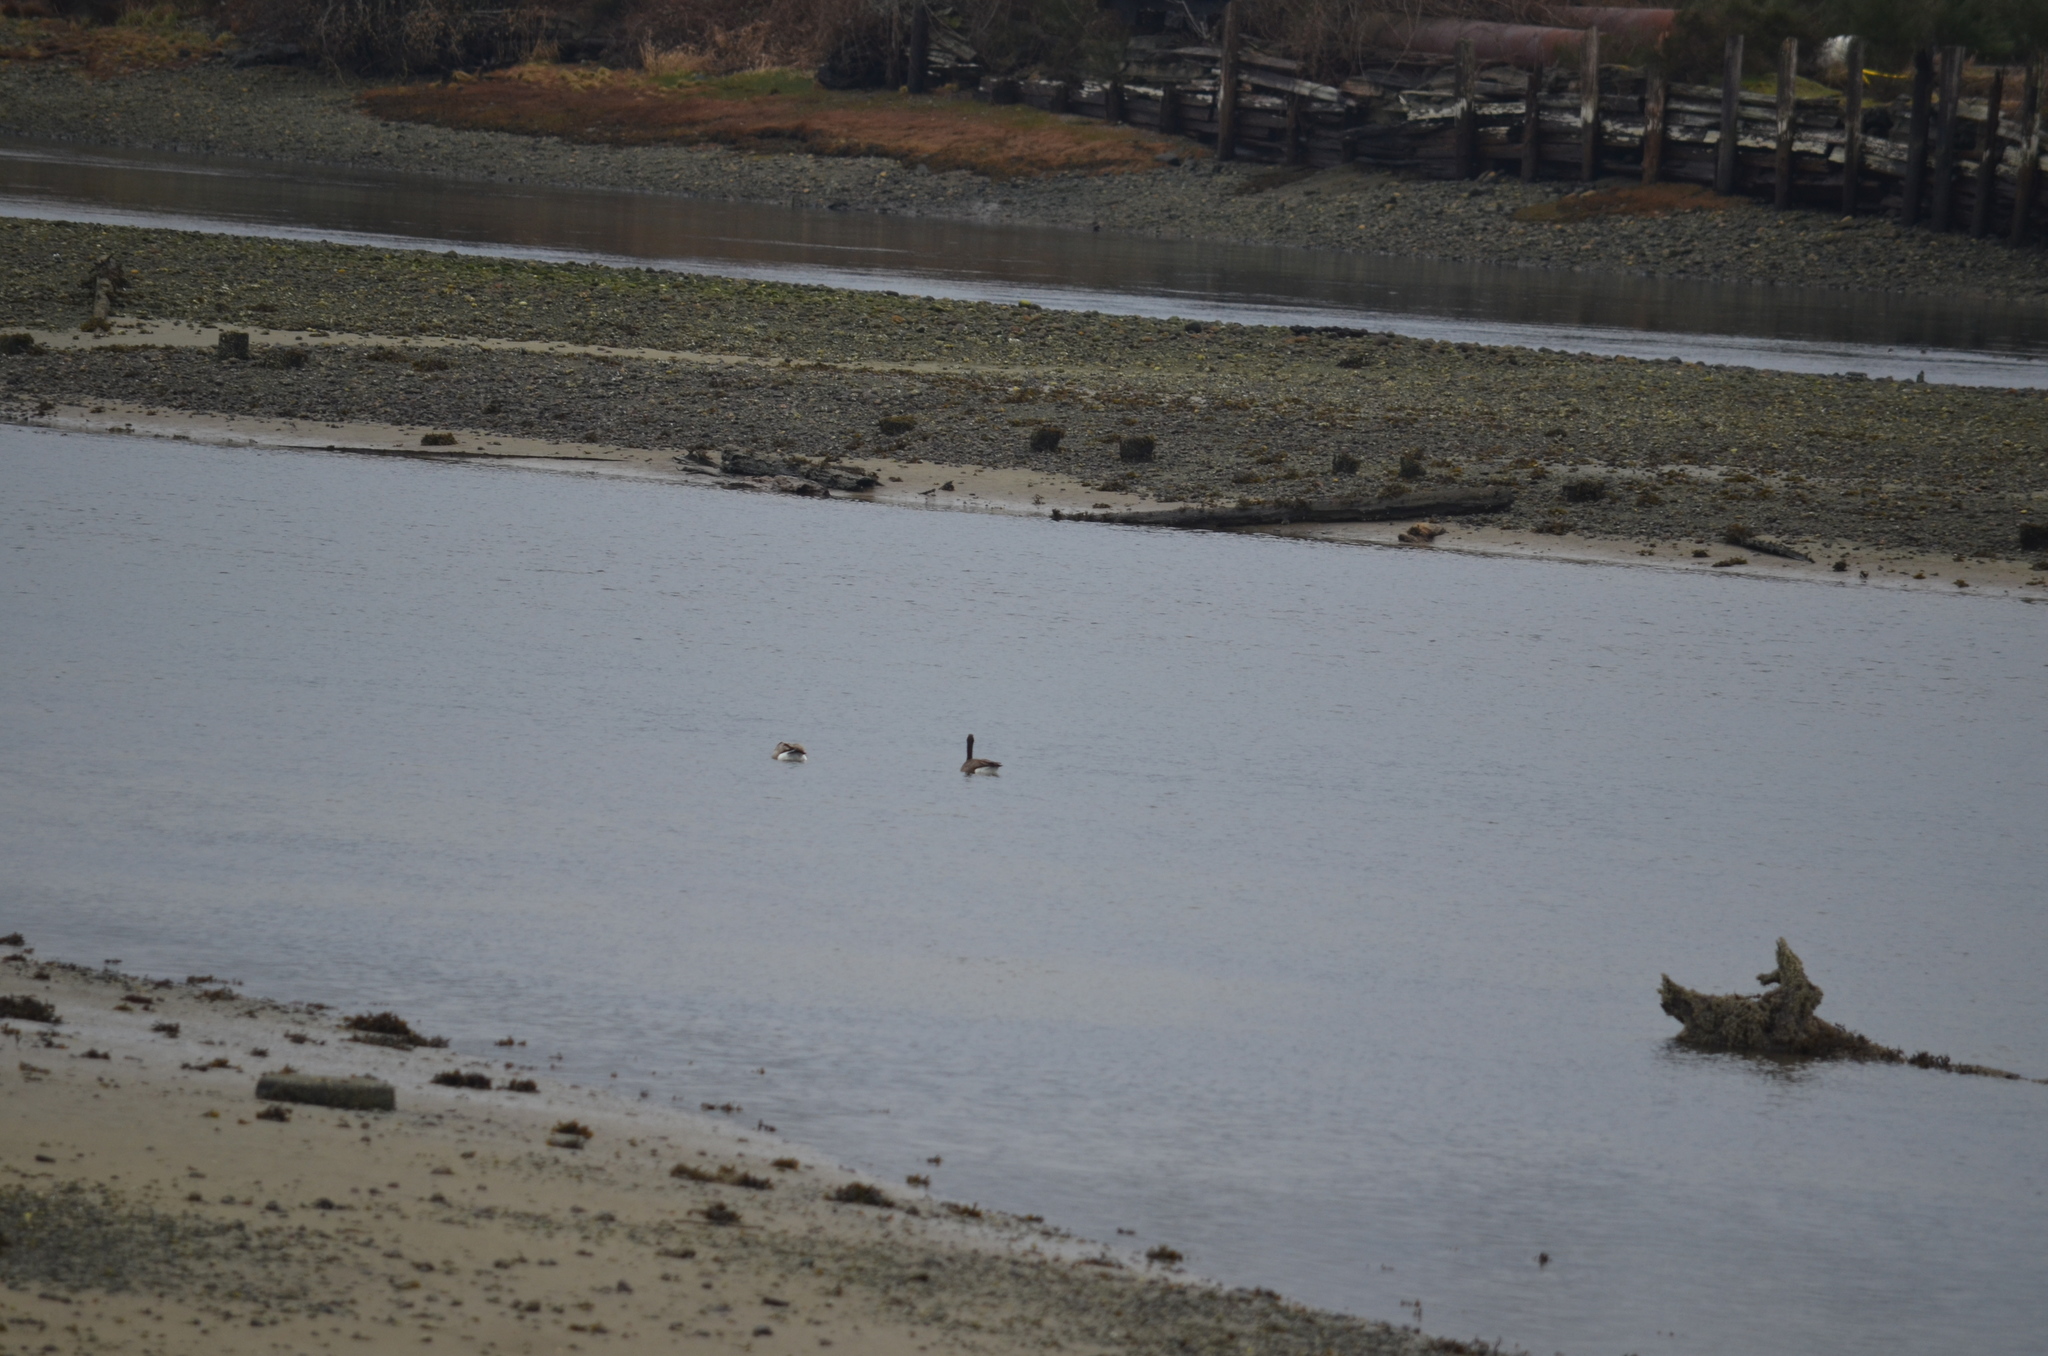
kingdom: Animalia
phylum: Chordata
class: Aves
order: Anseriformes
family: Anatidae
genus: Branta
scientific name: Branta canadensis
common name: Canada goose
